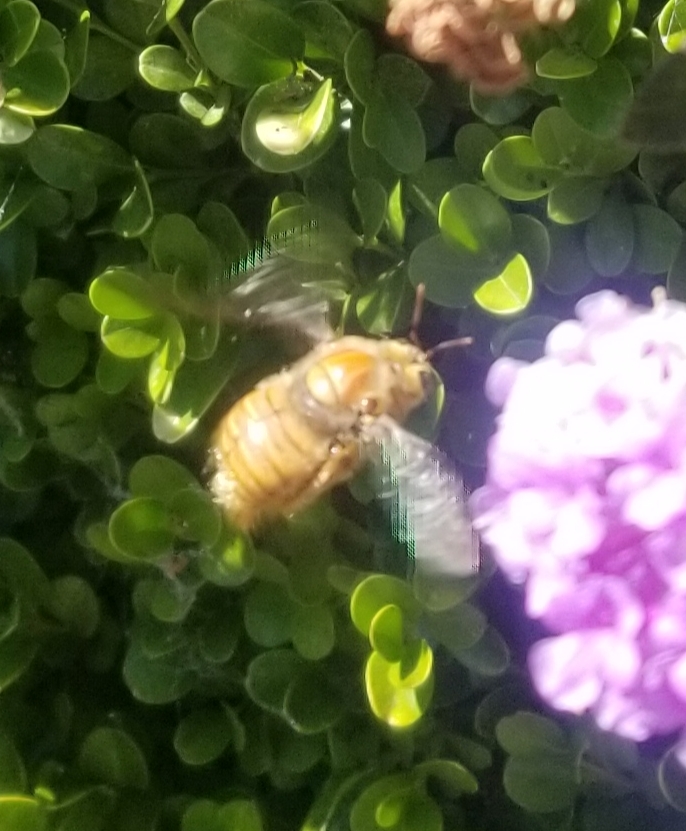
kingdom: Animalia
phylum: Arthropoda
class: Insecta
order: Hymenoptera
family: Apidae
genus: Xylocopa
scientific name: Xylocopa sonorina
